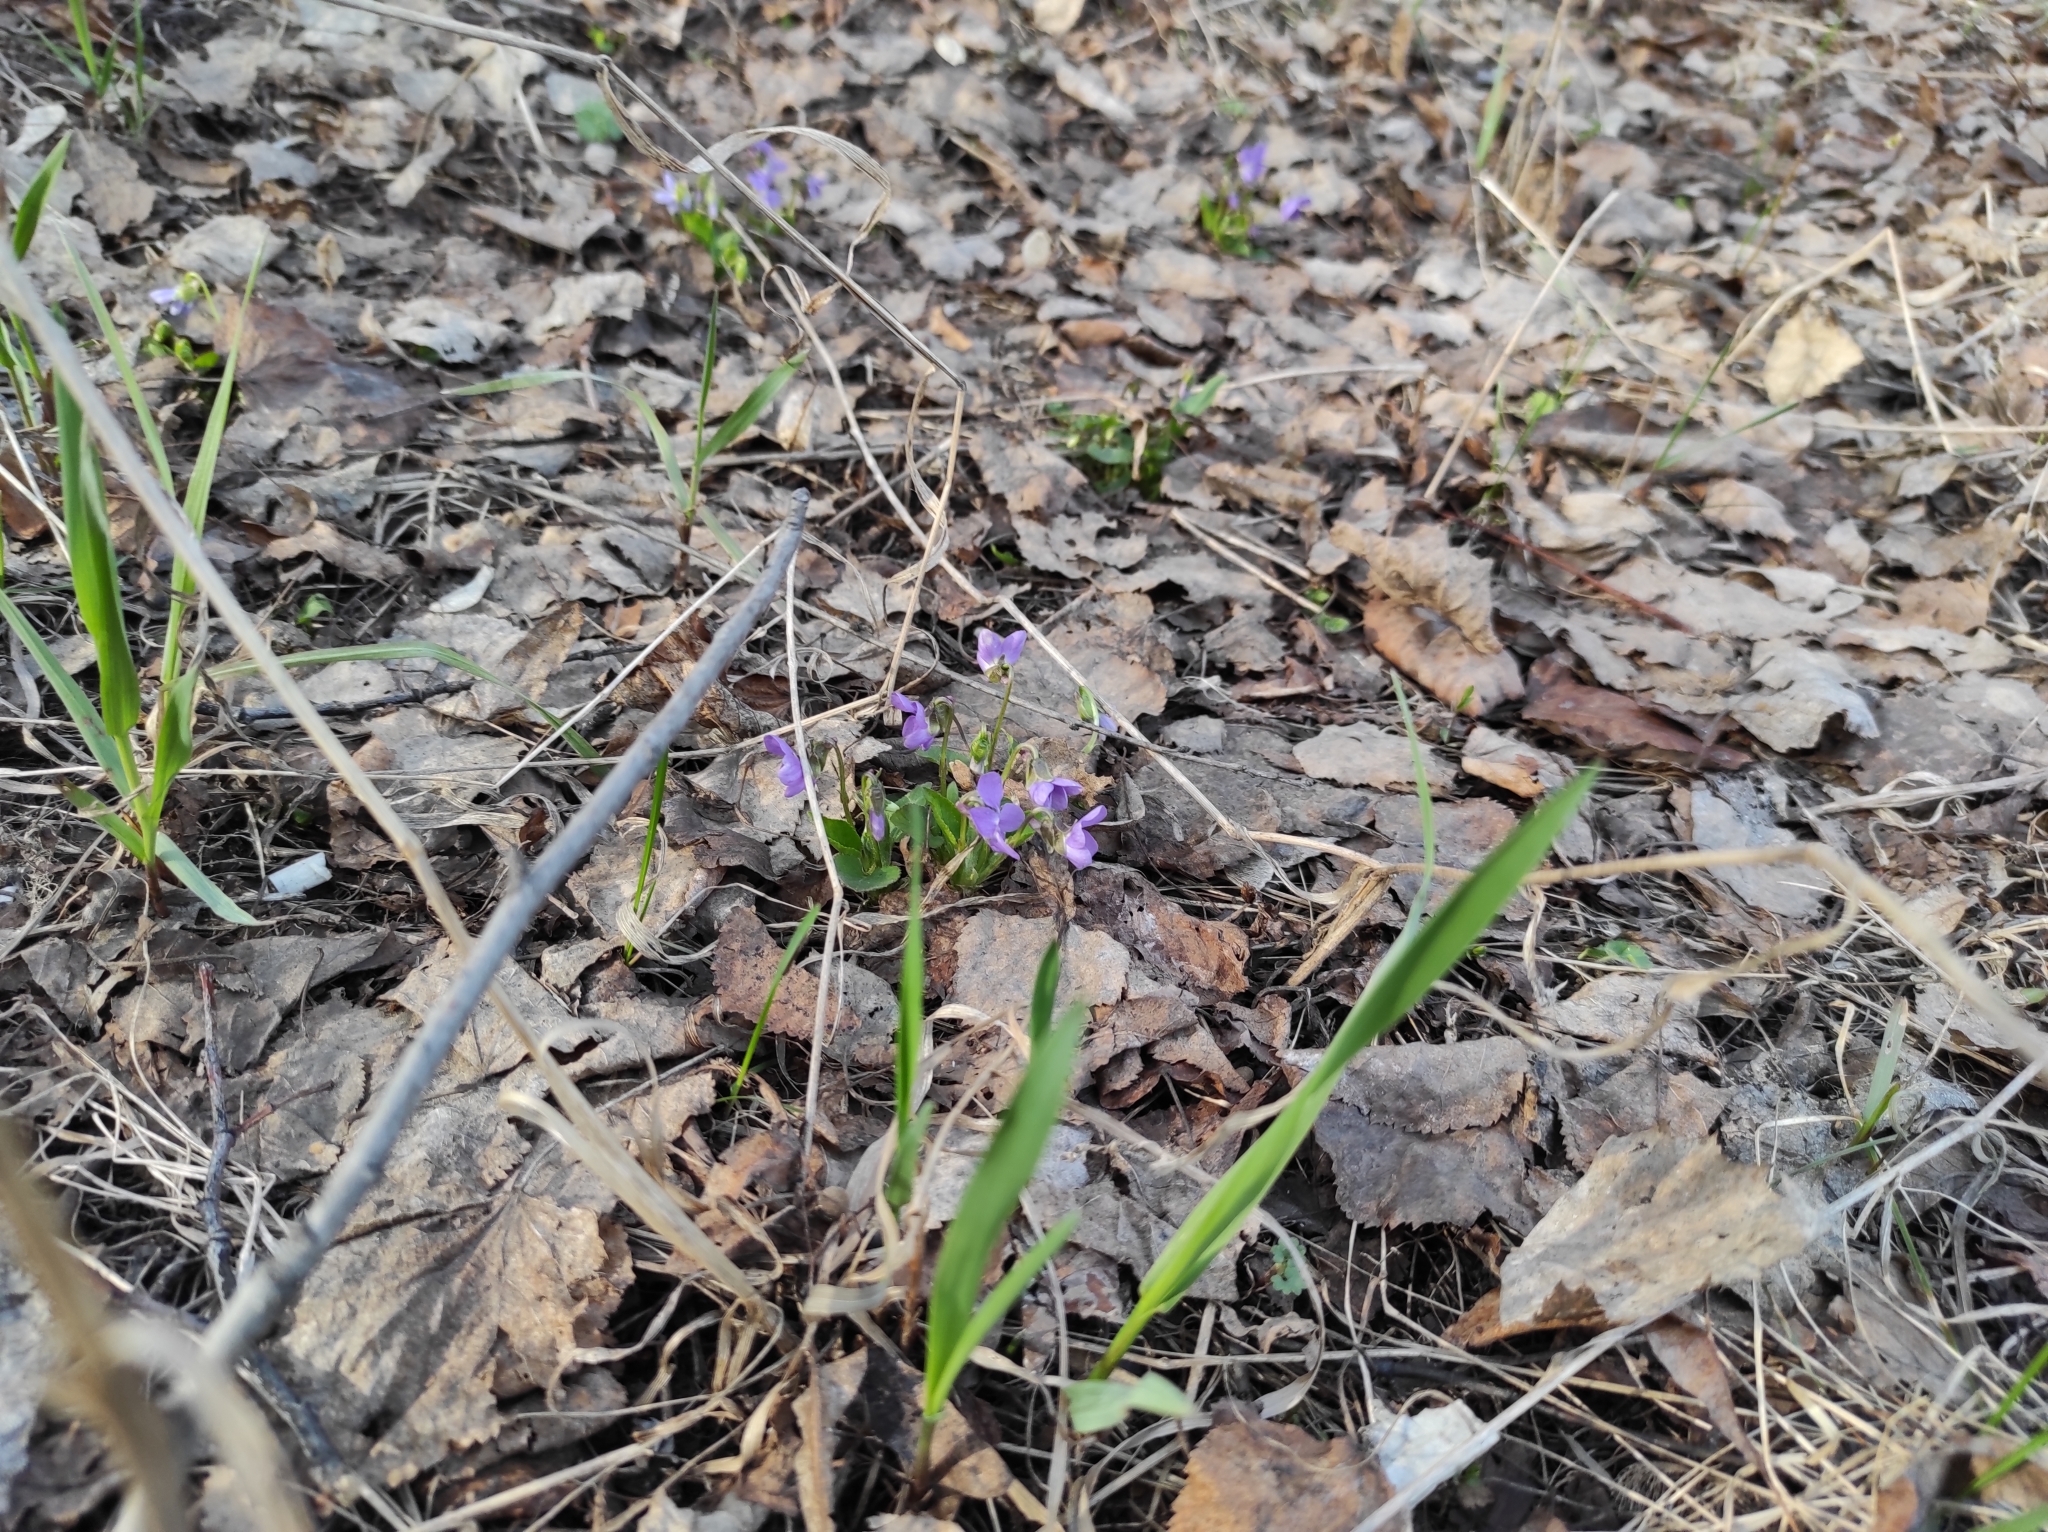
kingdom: Plantae
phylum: Tracheophyta
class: Magnoliopsida
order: Malpighiales
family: Violaceae
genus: Viola
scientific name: Viola hirta
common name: Hairy violet
